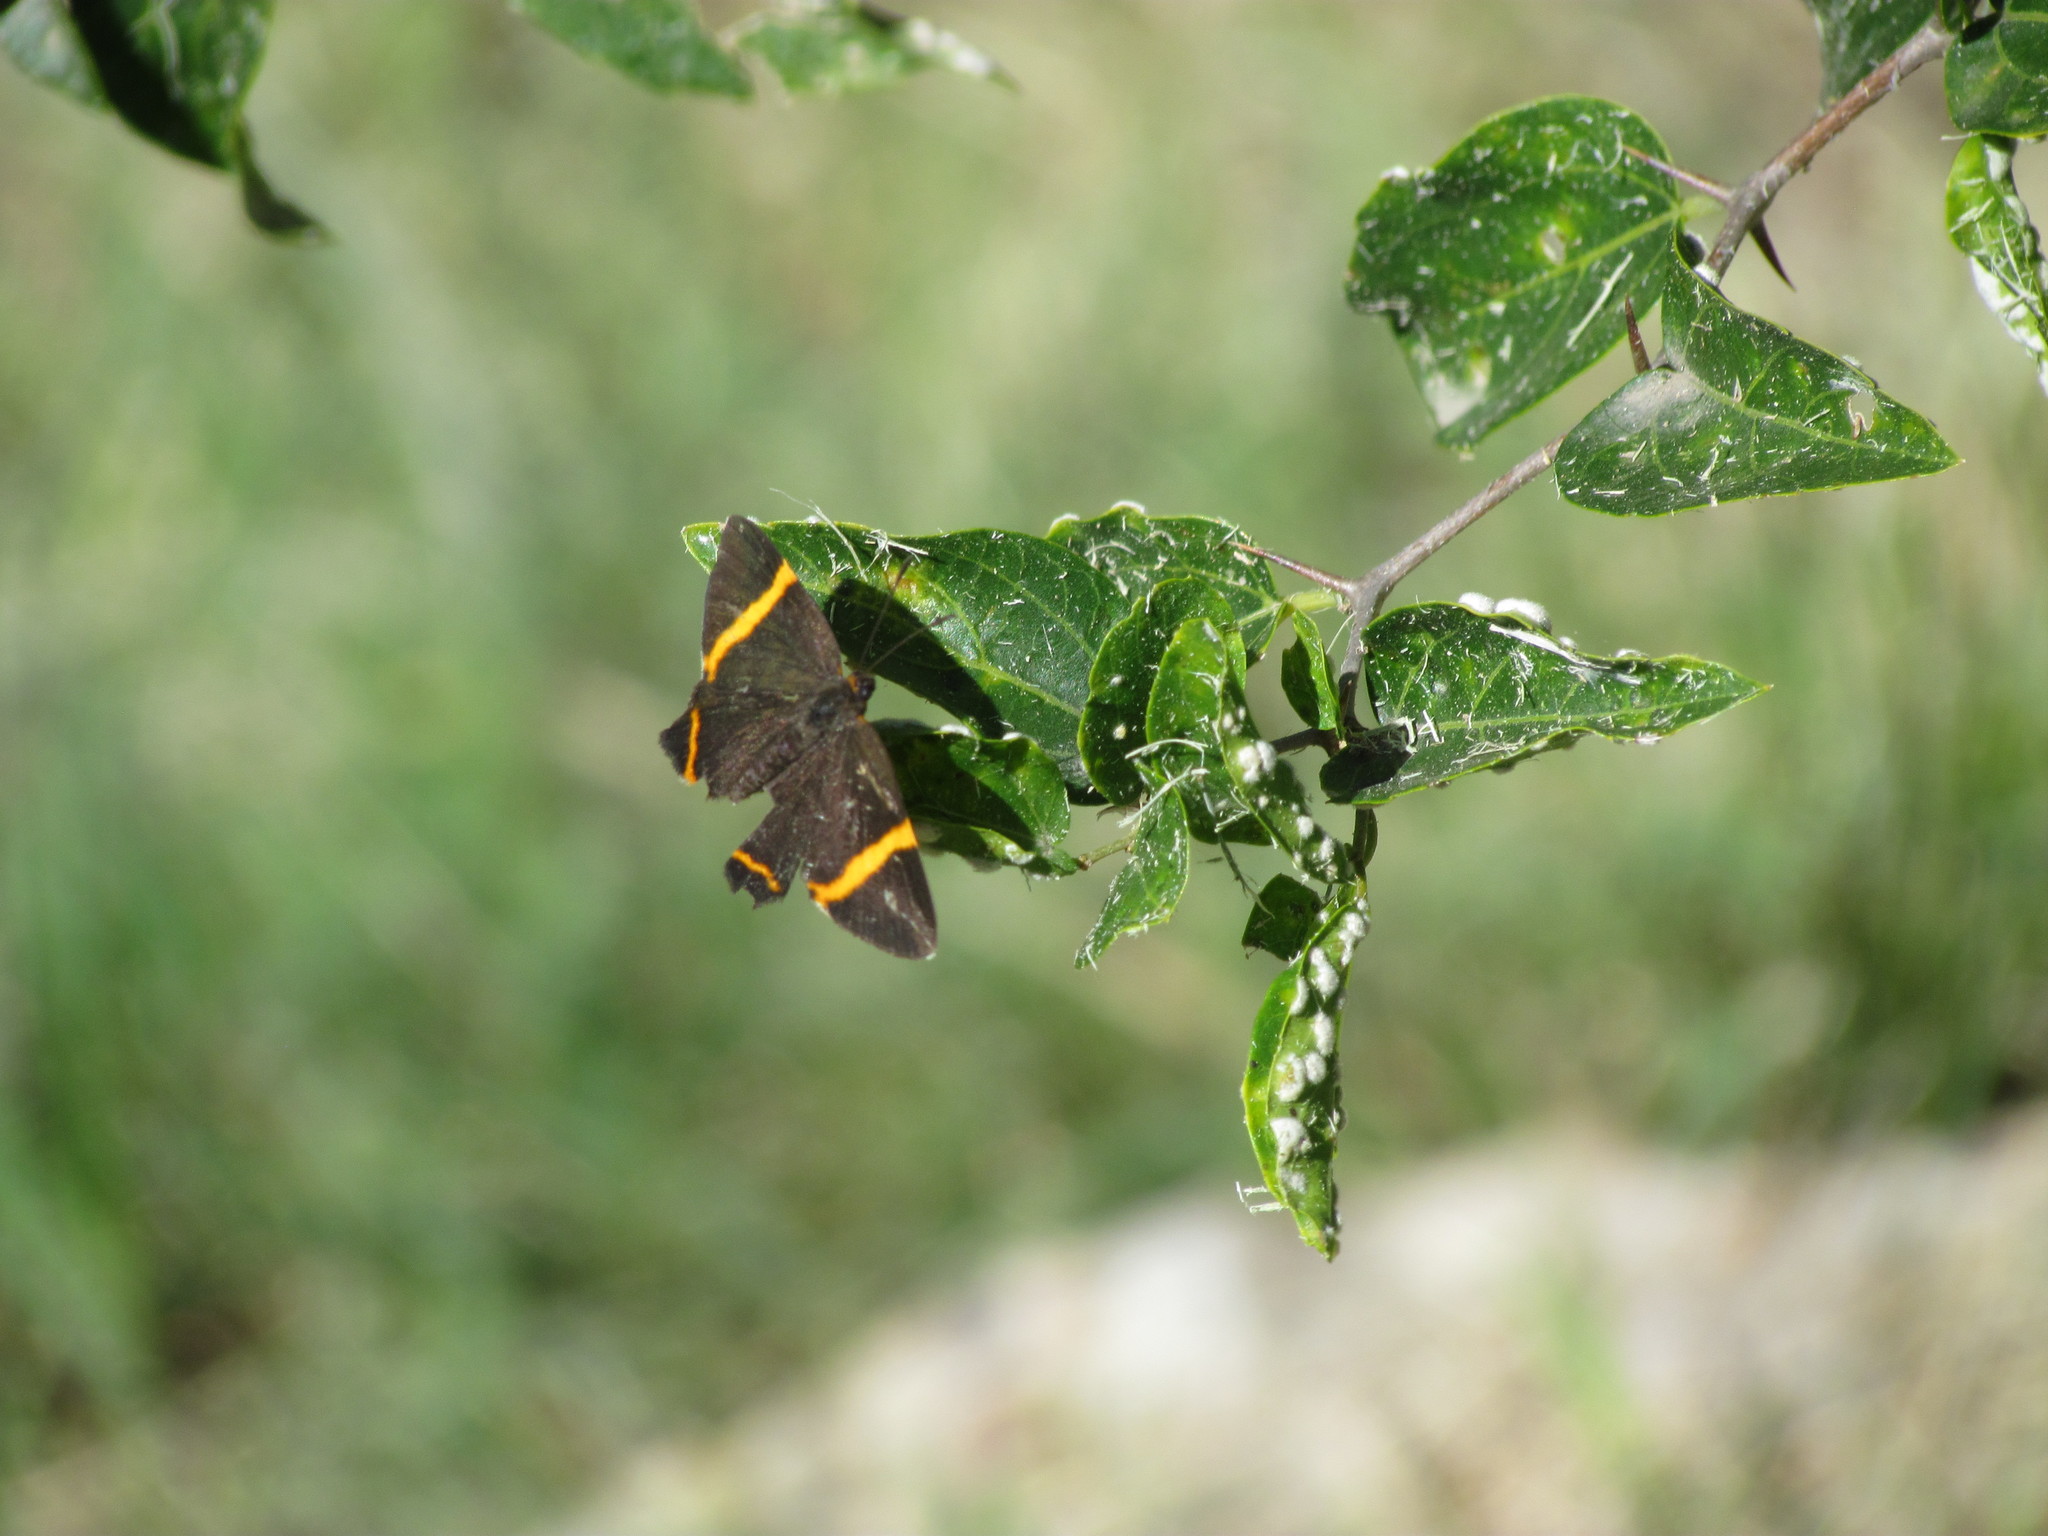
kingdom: Animalia
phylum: Arthropoda
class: Insecta
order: Lepidoptera
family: Riodinidae
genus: Riodina
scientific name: Riodina lysippoides
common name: Little dancer metalmark
